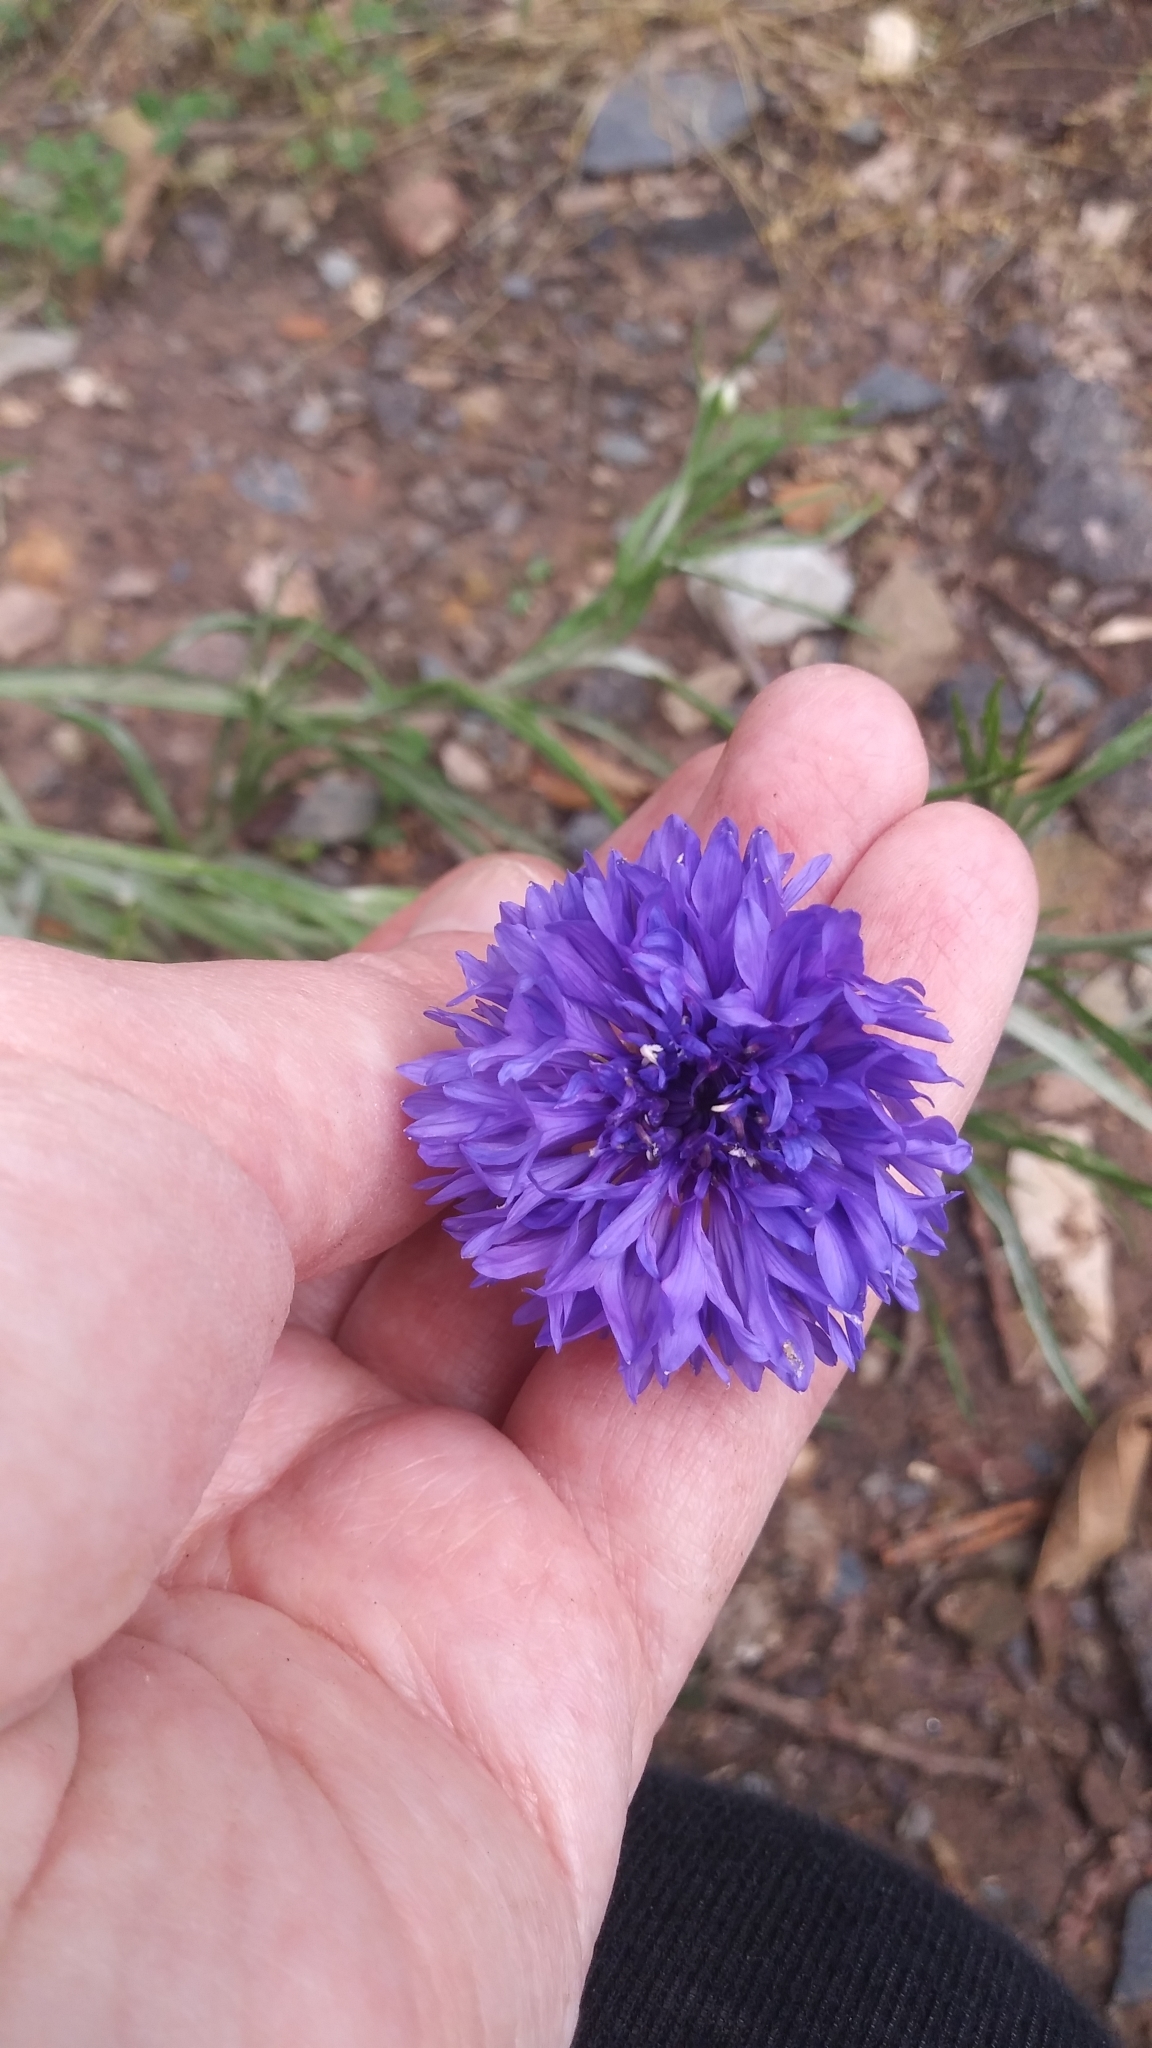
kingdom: Plantae
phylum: Tracheophyta
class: Magnoliopsida
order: Asterales
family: Asteraceae
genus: Centaurea
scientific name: Centaurea cyanus
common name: Cornflower
